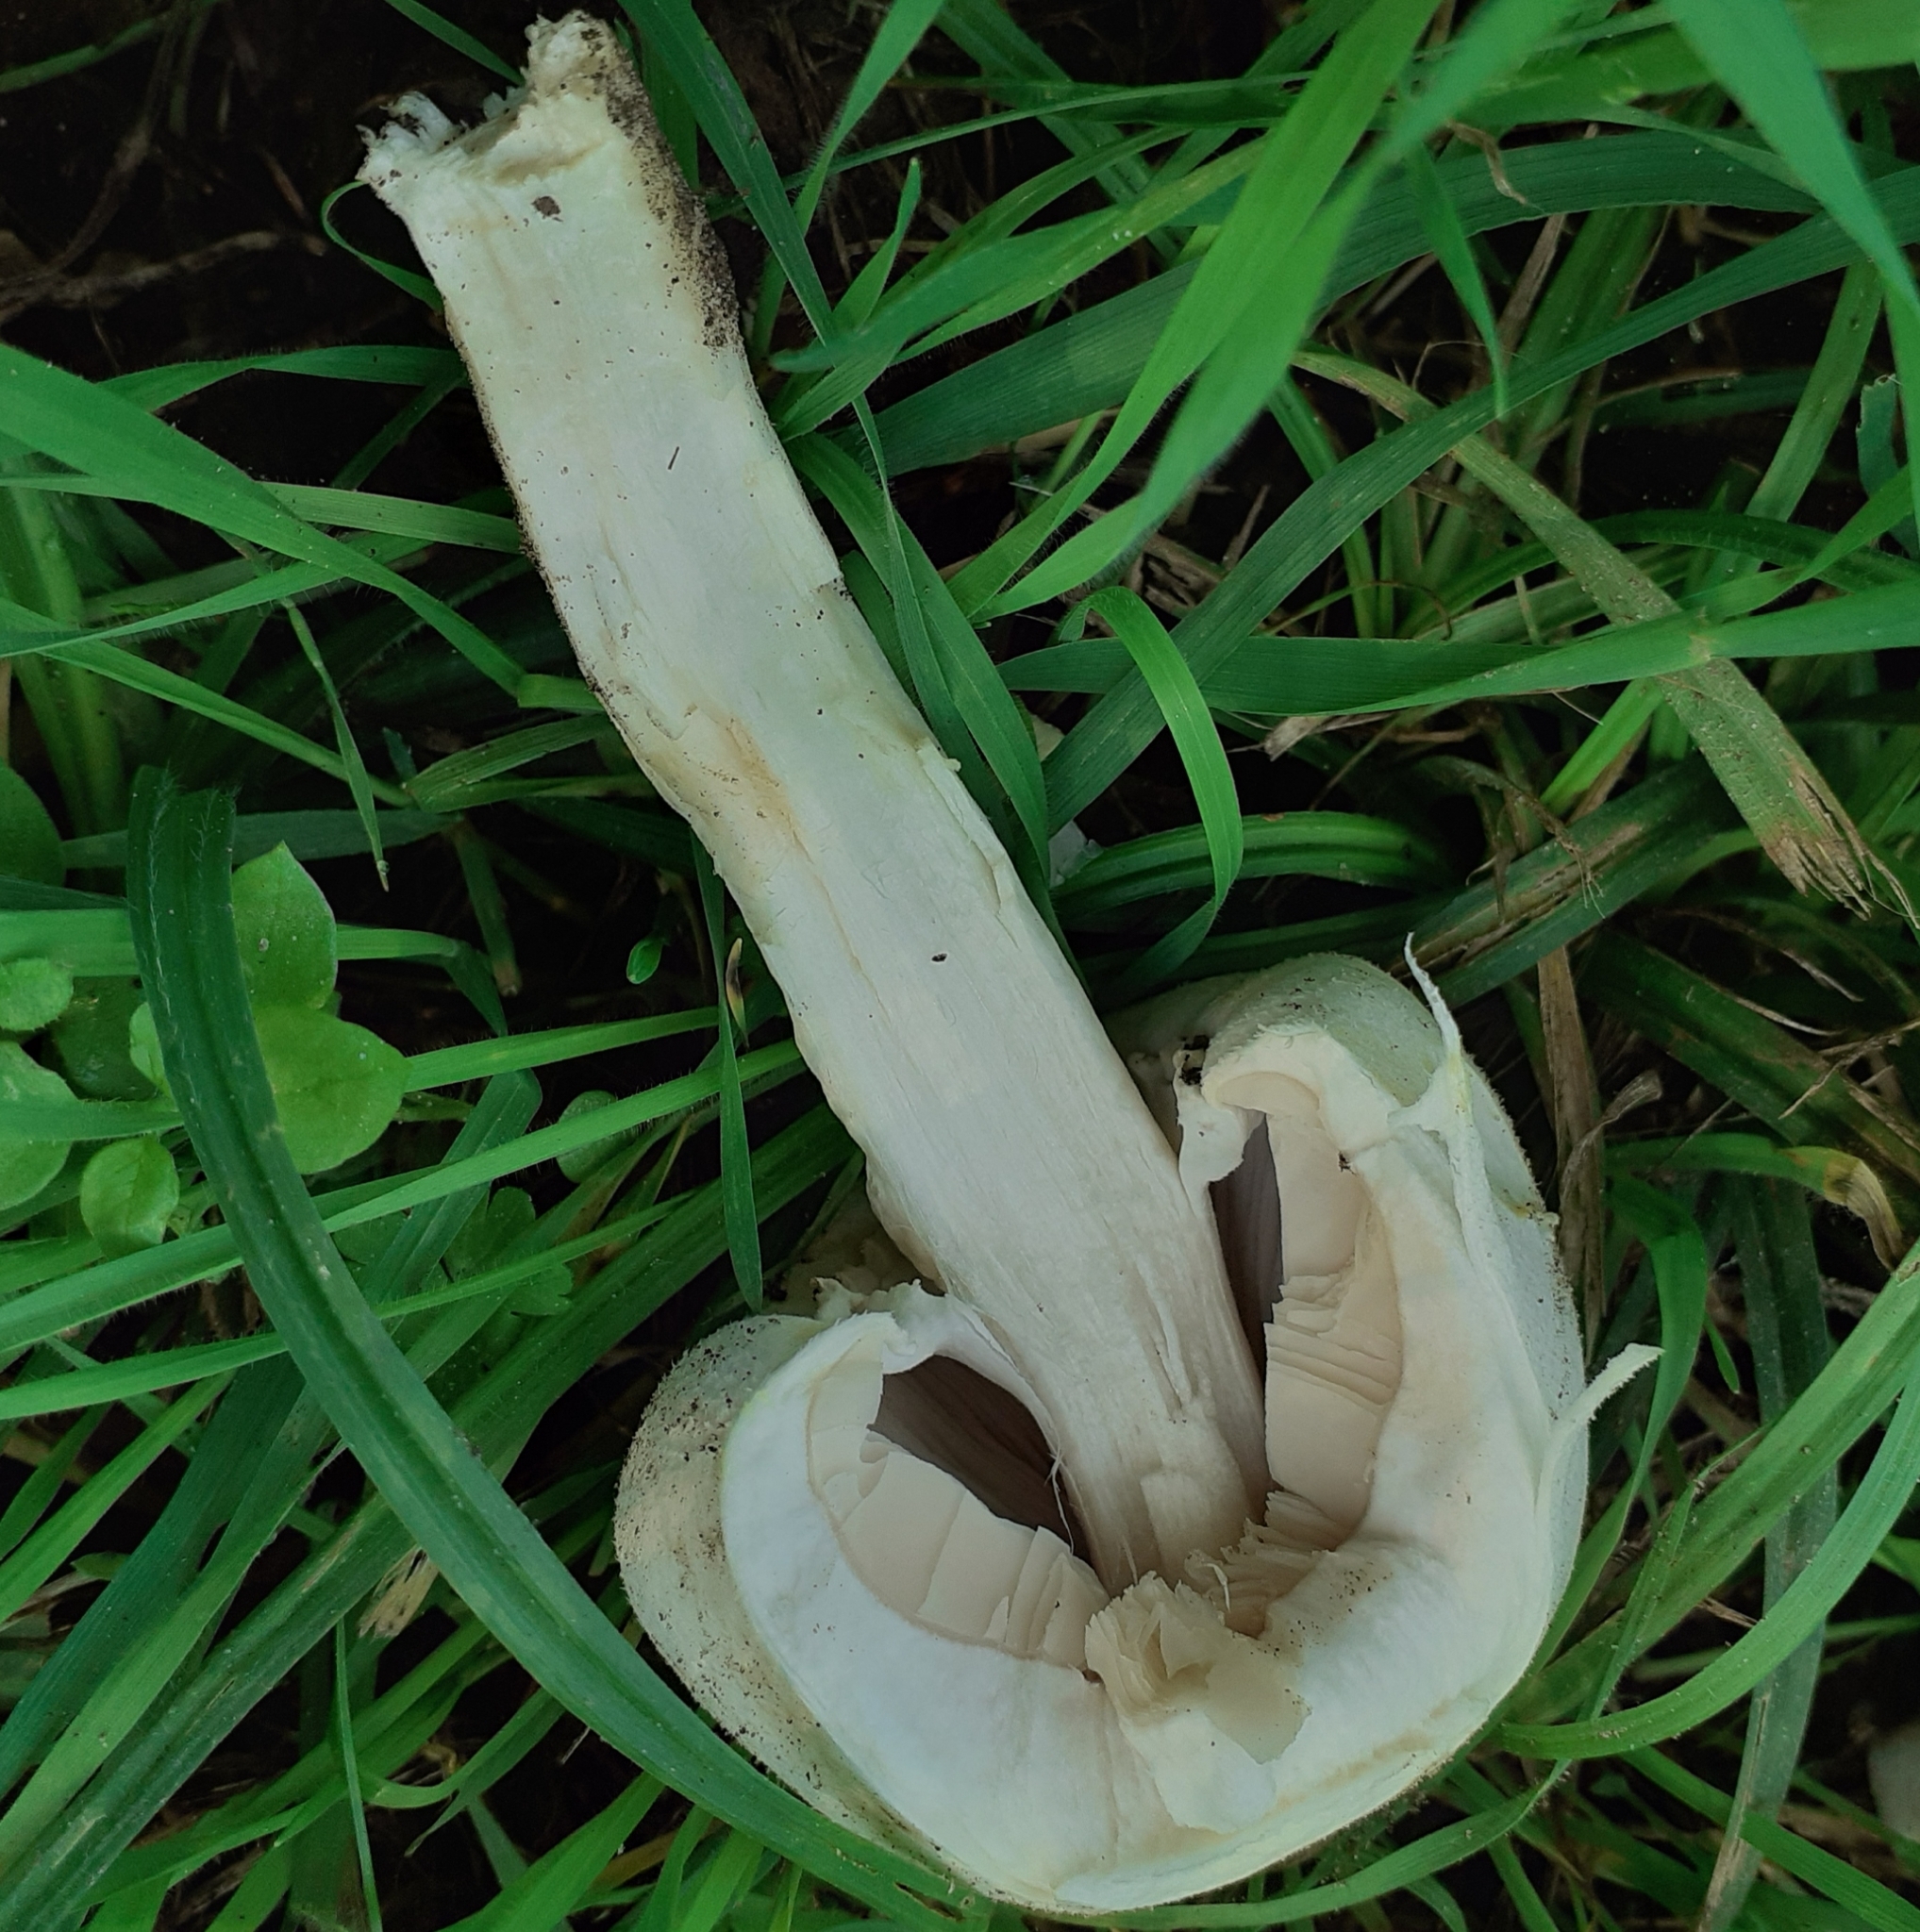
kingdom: Fungi
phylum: Basidiomycota
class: Agaricomycetes
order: Agaricales
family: Agaricaceae
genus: Agaricus
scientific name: Agaricus xanthodermus
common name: Yellow stainer
